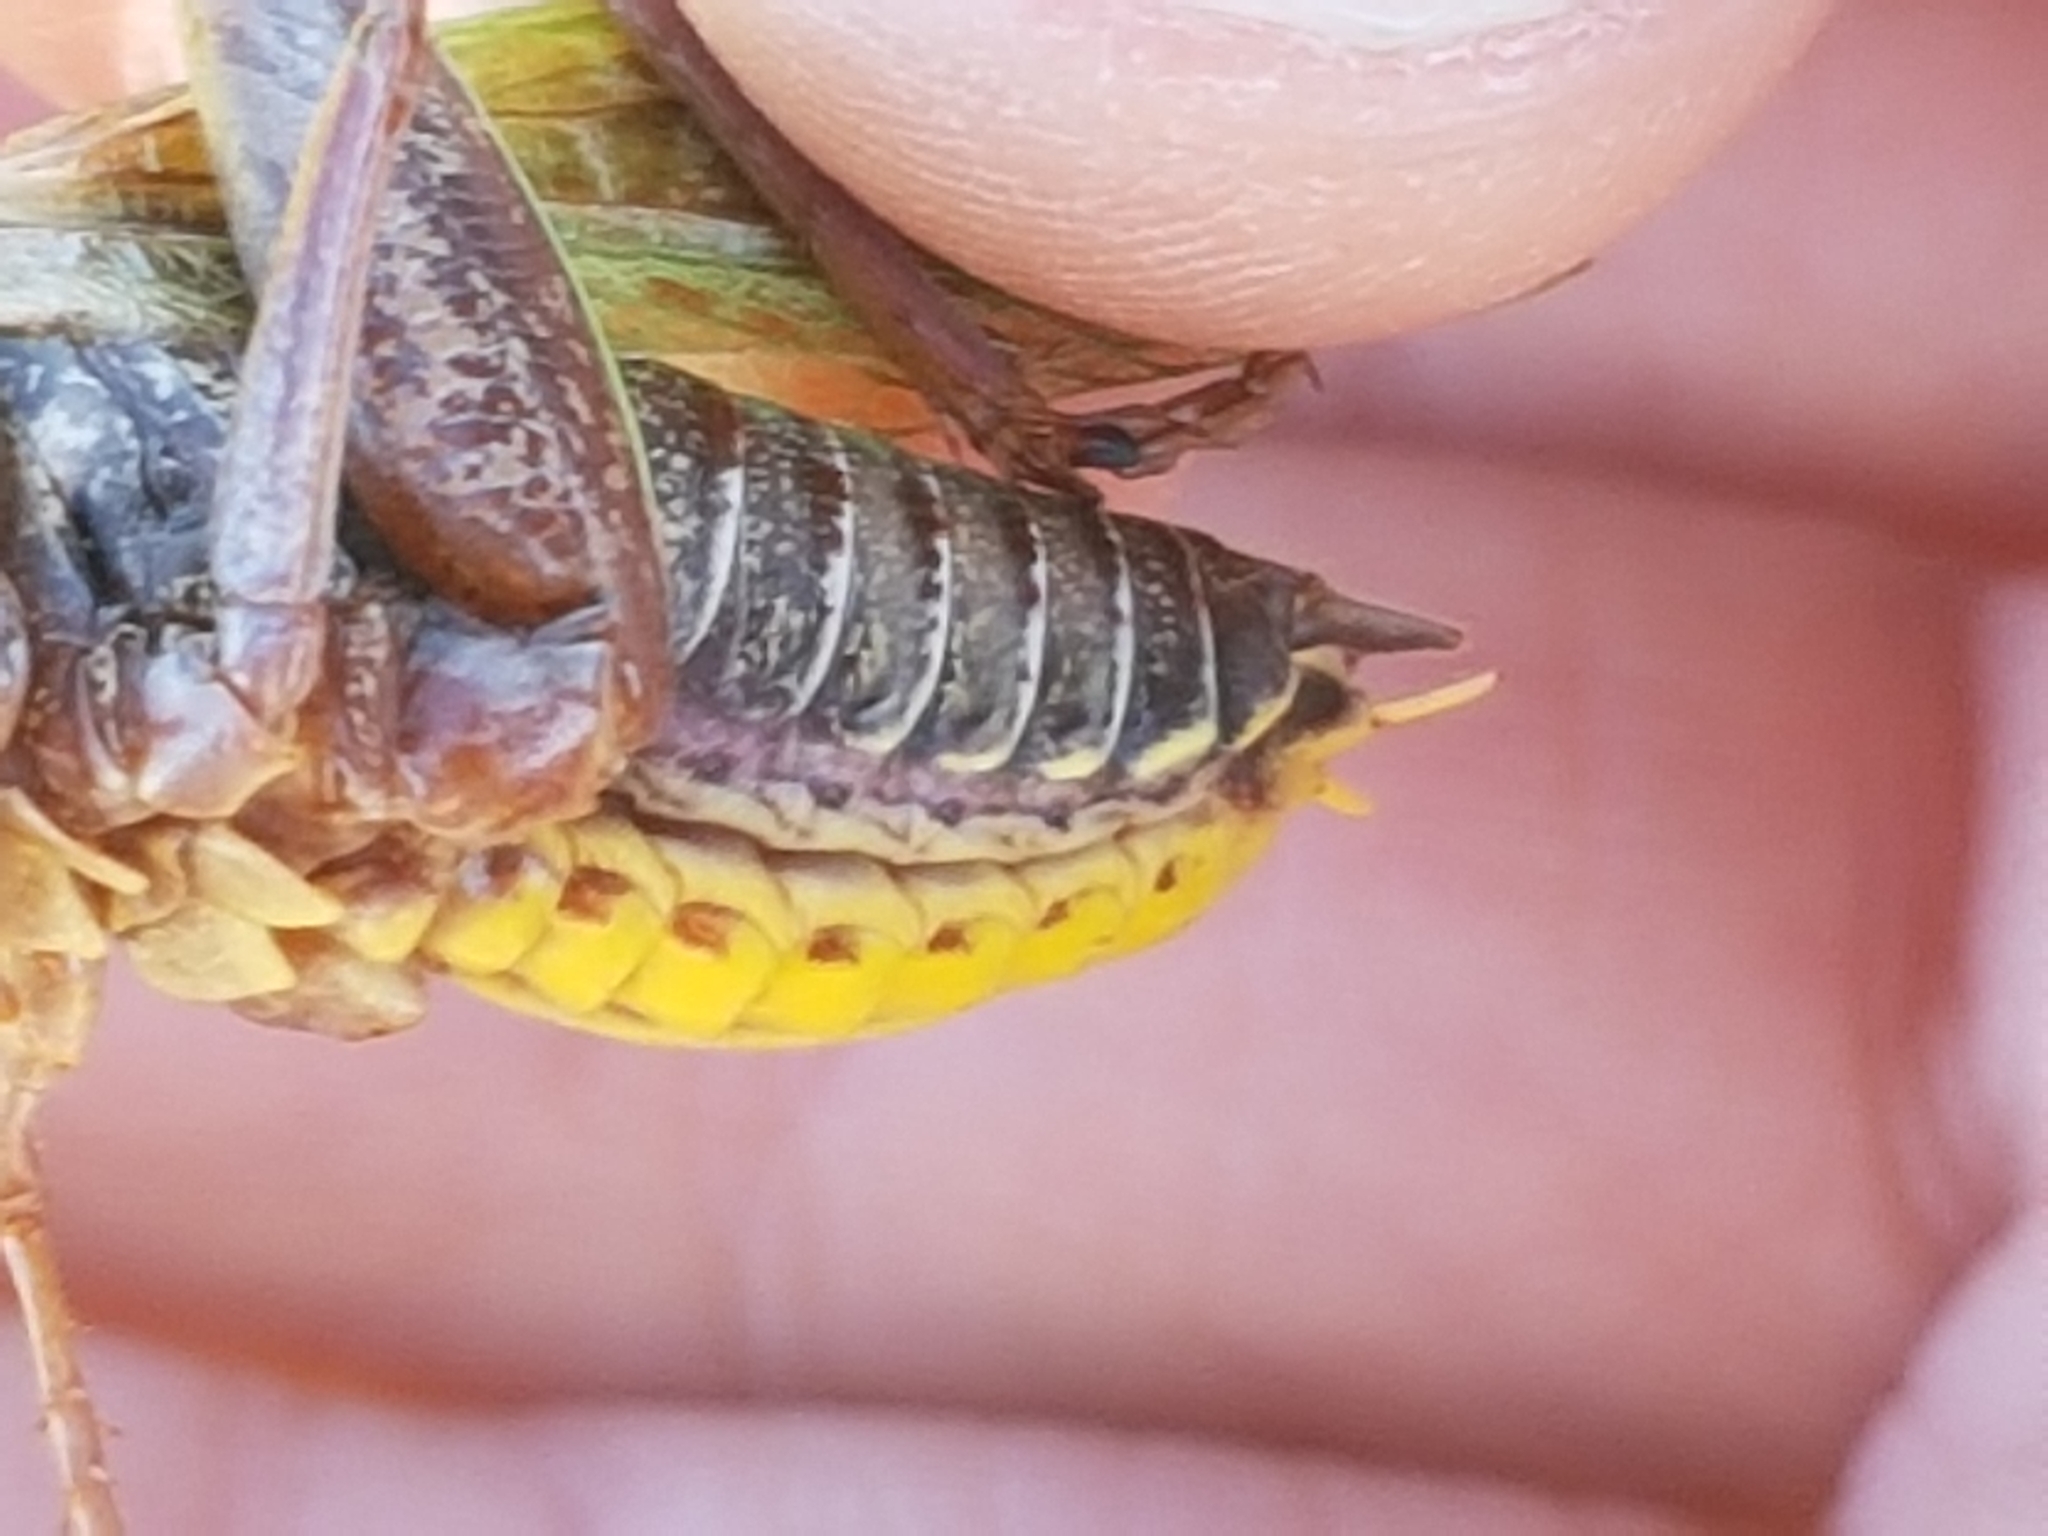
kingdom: Animalia
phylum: Arthropoda
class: Insecta
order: Orthoptera
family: Tettigoniidae
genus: Decticus
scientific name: Decticus verrucivorus
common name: Wart-biter
